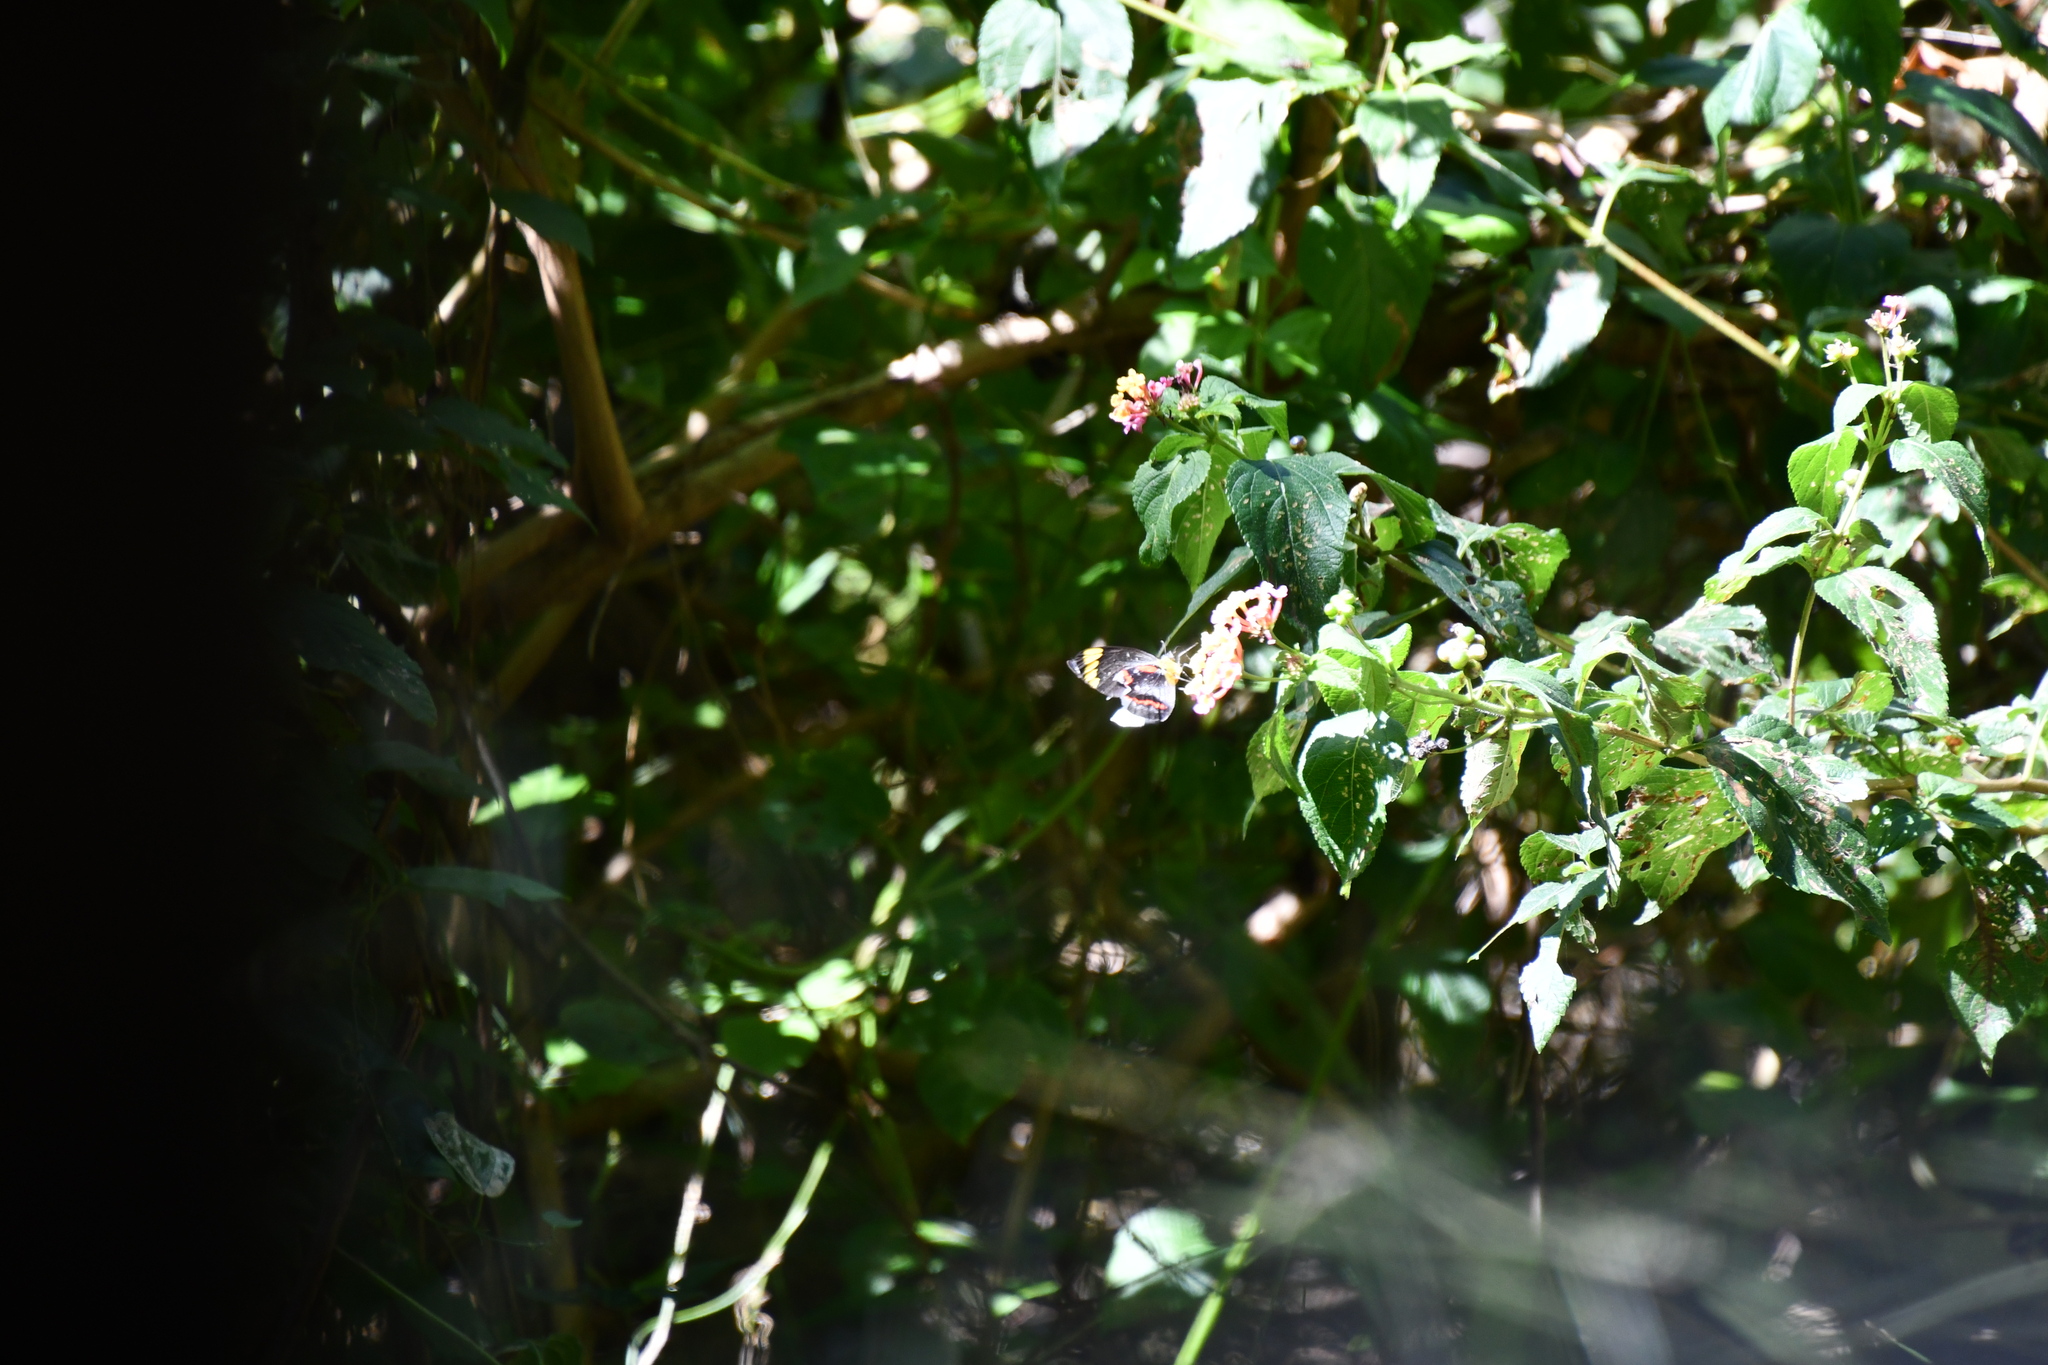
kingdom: Animalia
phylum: Arthropoda
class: Insecta
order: Lepidoptera
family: Pieridae
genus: Delias
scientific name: Delias nigrina
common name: Black jezebel
